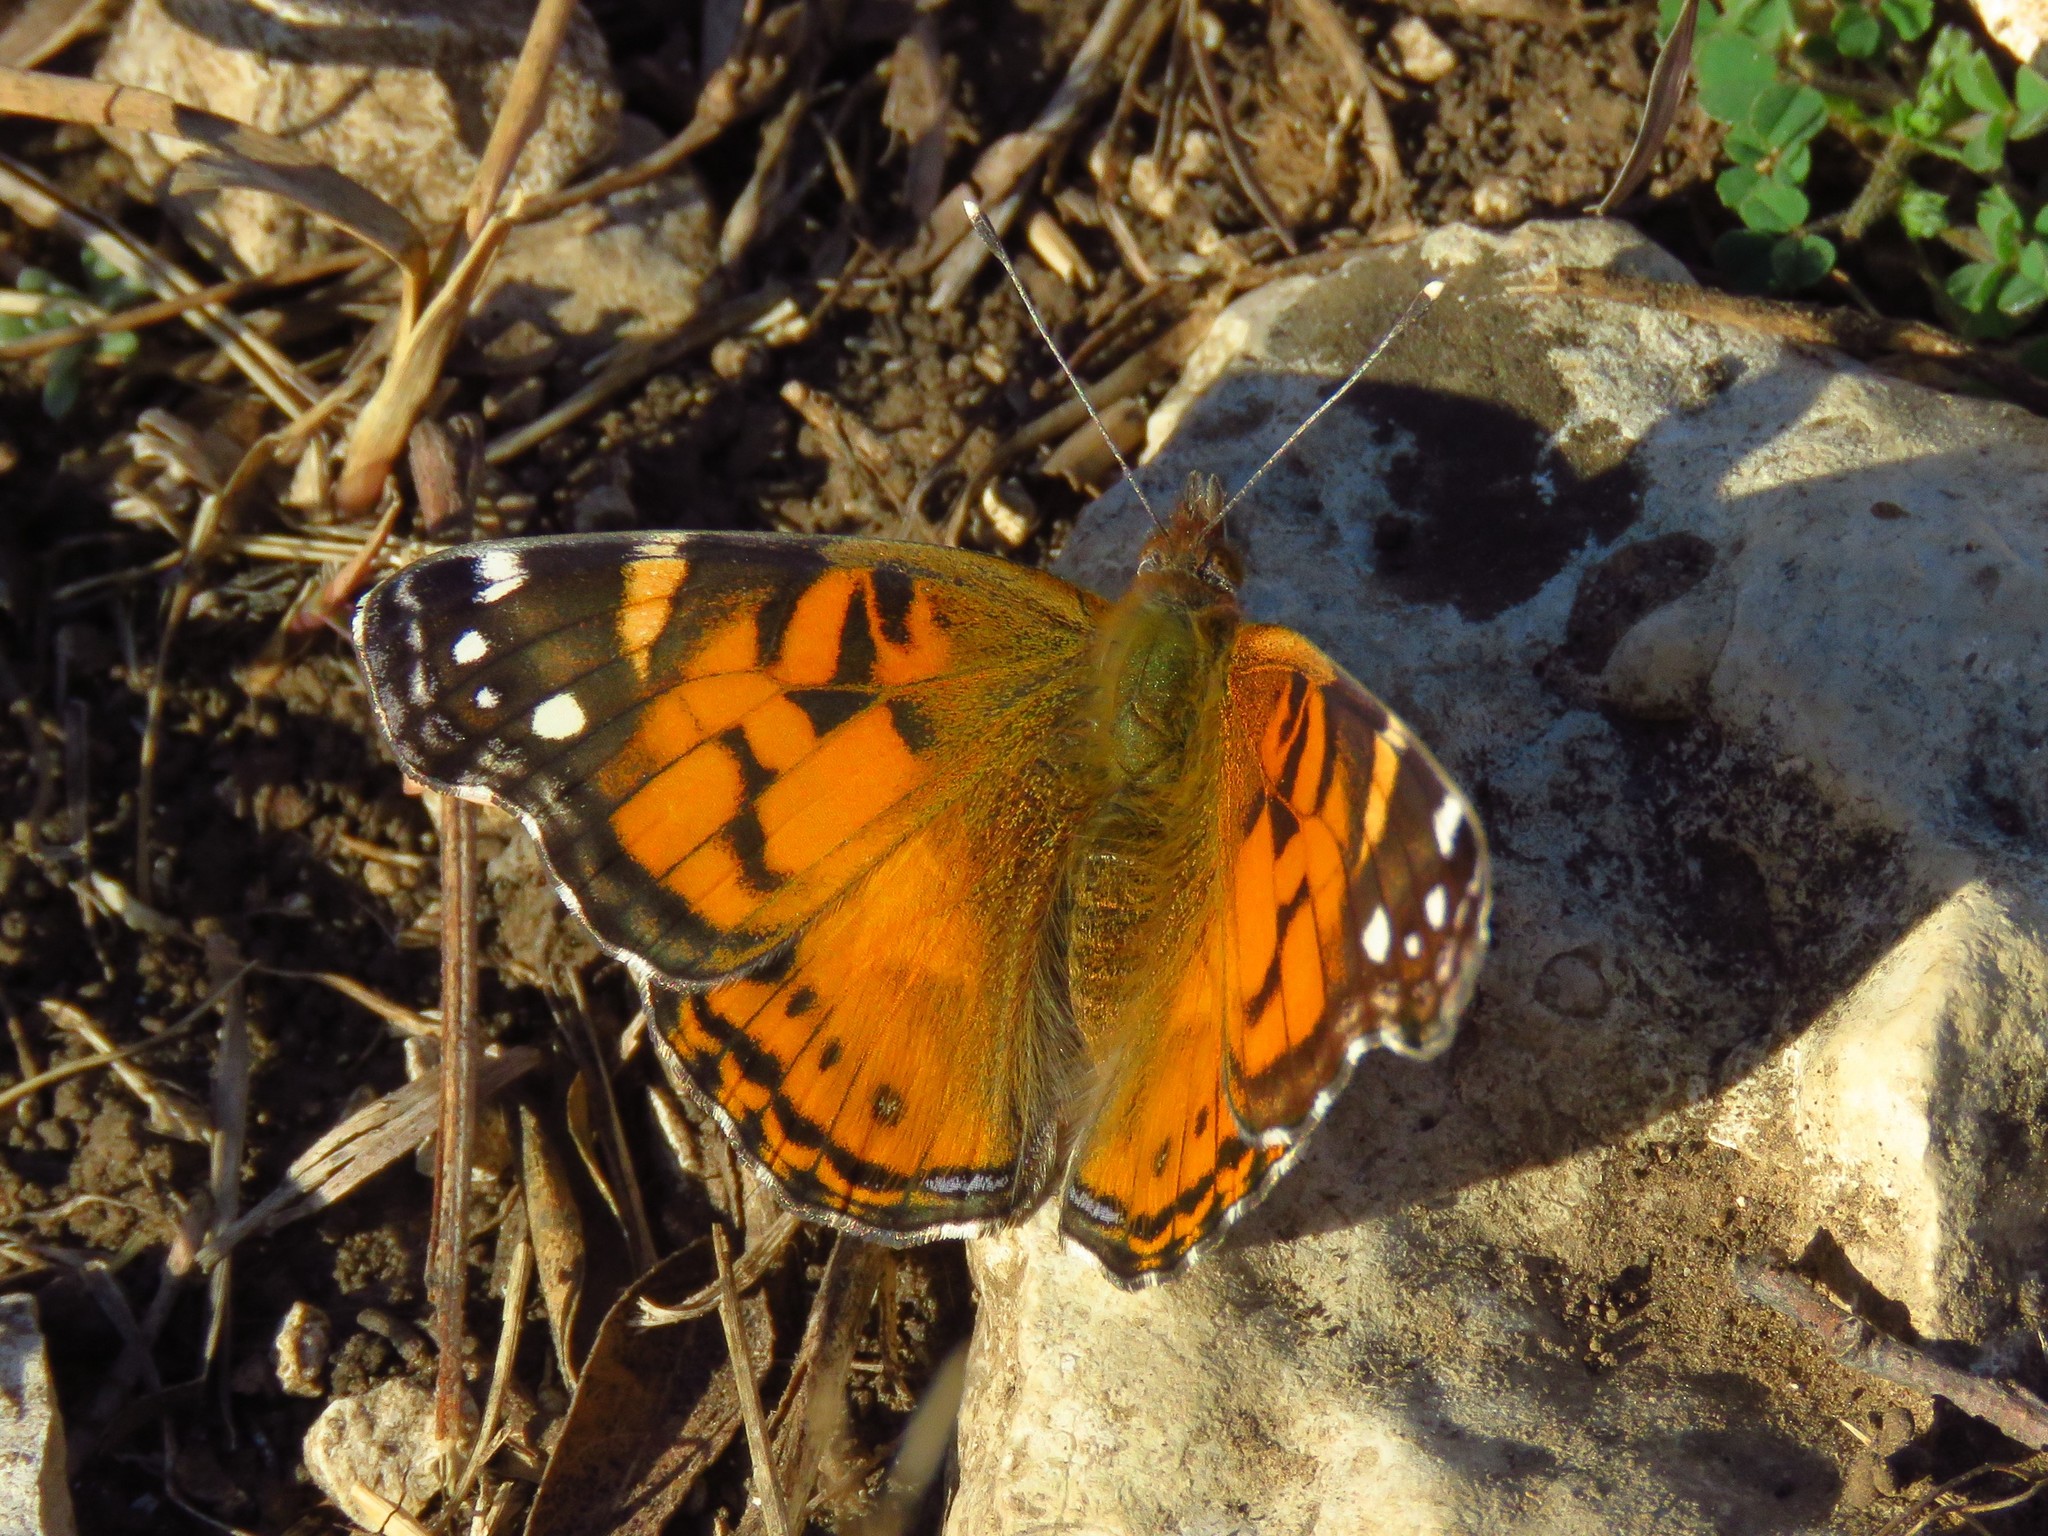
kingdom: Animalia
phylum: Arthropoda
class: Insecta
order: Lepidoptera
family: Nymphalidae
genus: Vanessa
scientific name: Vanessa virginiensis
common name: American lady
